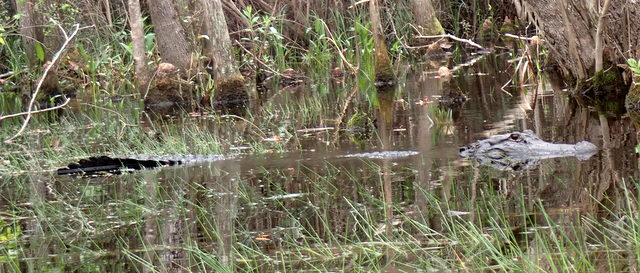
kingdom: Animalia
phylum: Chordata
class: Crocodylia
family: Alligatoridae
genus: Alligator
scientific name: Alligator mississippiensis
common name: American alligator
